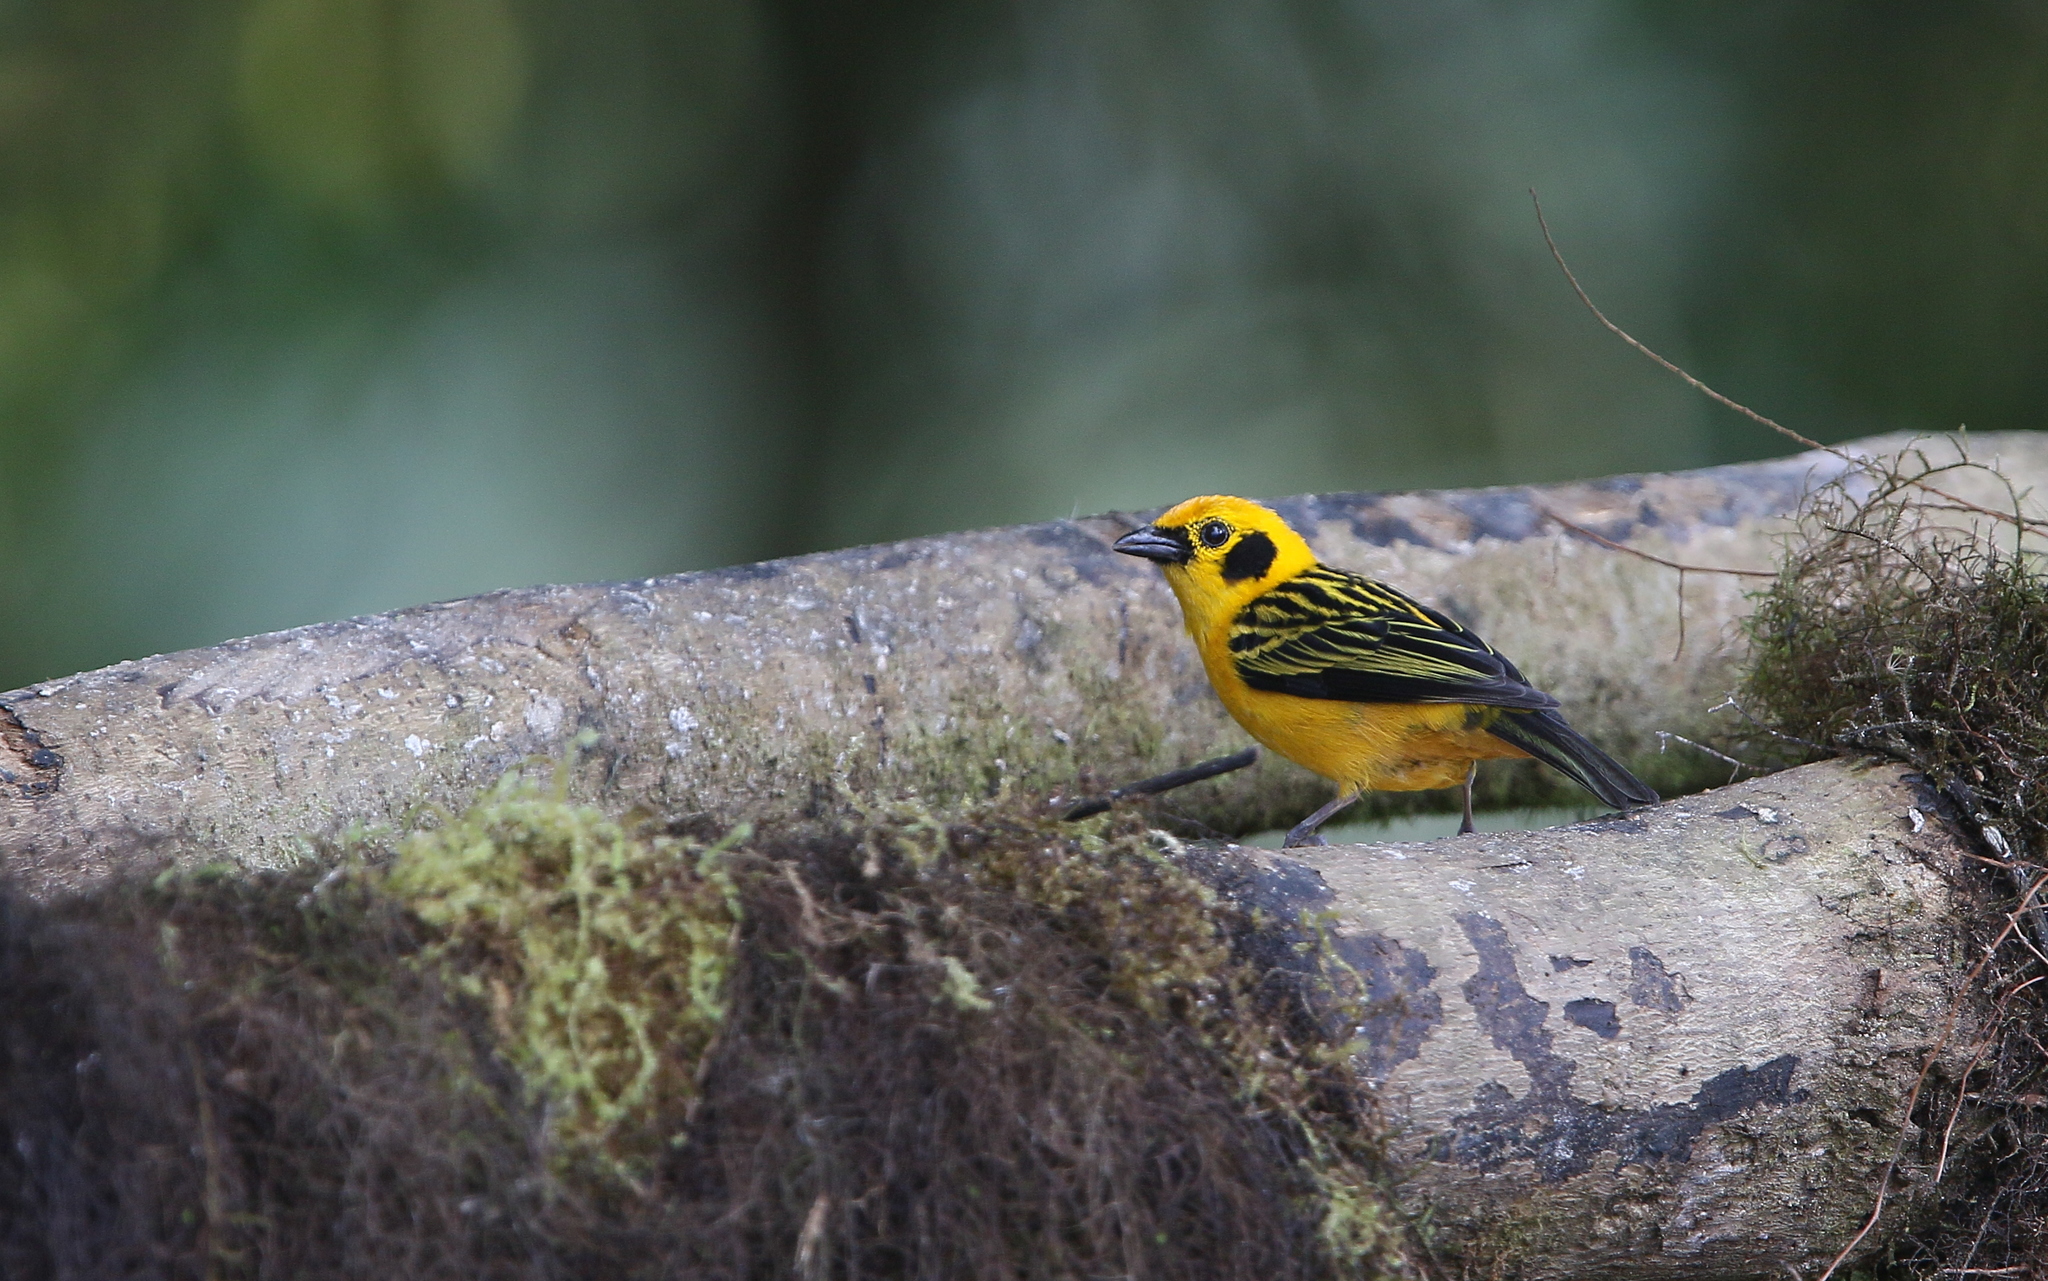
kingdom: Animalia
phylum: Chordata
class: Aves
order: Passeriformes
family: Thraupidae
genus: Tangara
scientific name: Tangara arthus
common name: Golden tanager
